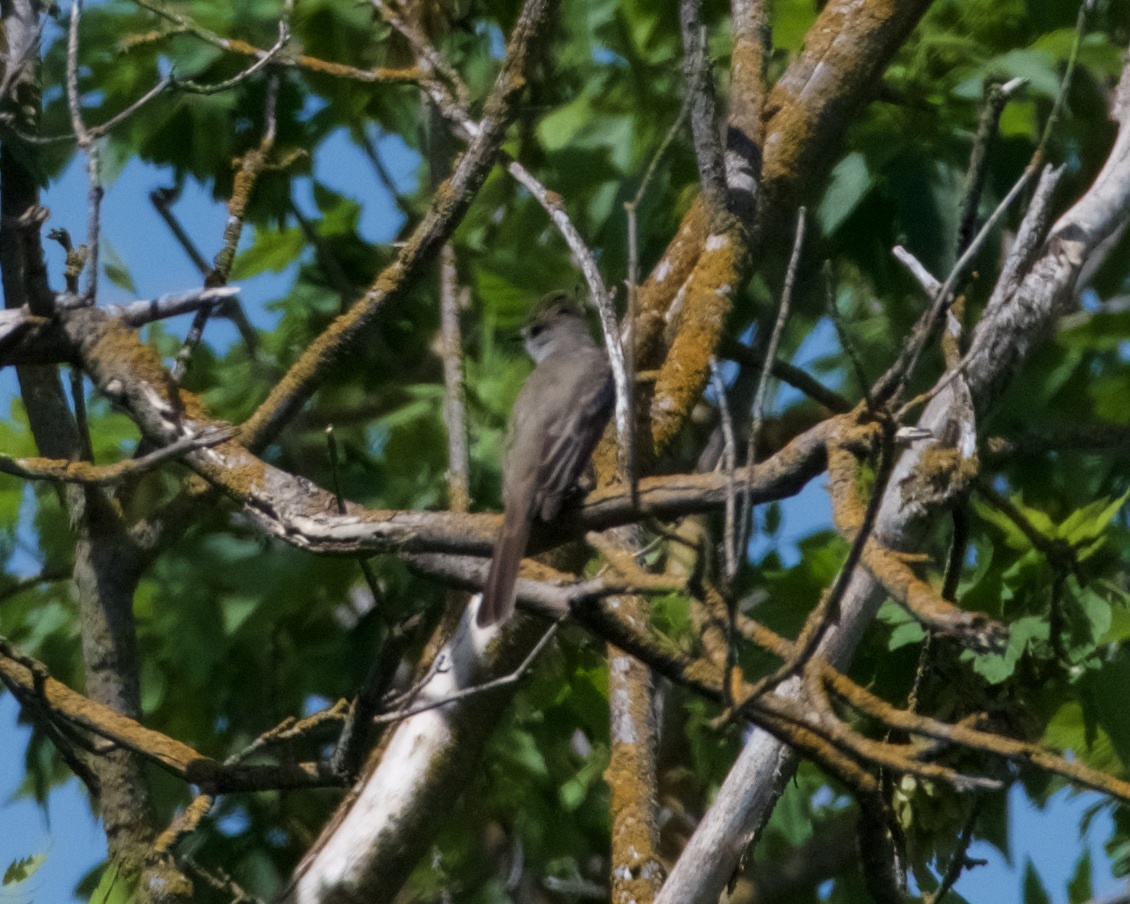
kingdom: Animalia
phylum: Chordata
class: Aves
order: Passeriformes
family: Tyrannidae
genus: Myiarchus
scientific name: Myiarchus cinerascens
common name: Ash-throated flycatcher
